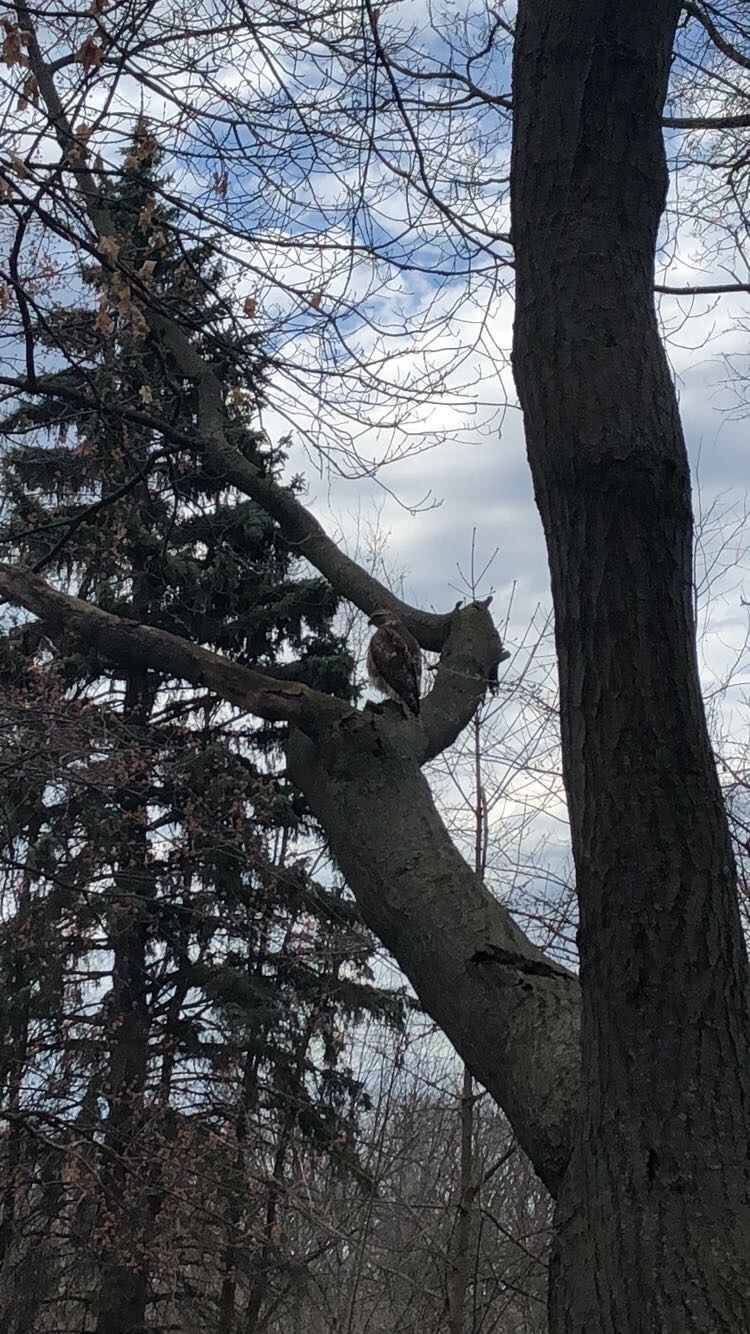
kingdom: Animalia
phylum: Chordata
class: Aves
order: Accipitriformes
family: Accipitridae
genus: Buteo
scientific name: Buteo jamaicensis
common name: Red-tailed hawk
